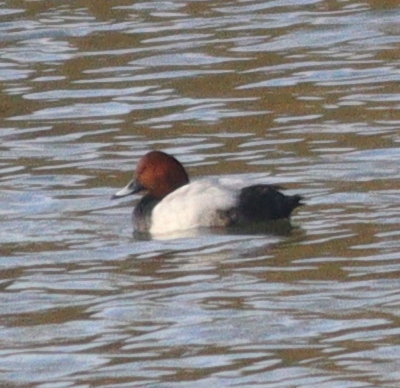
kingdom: Animalia
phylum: Chordata
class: Aves
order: Anseriformes
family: Anatidae
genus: Aythya
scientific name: Aythya ferina
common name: Common pochard
